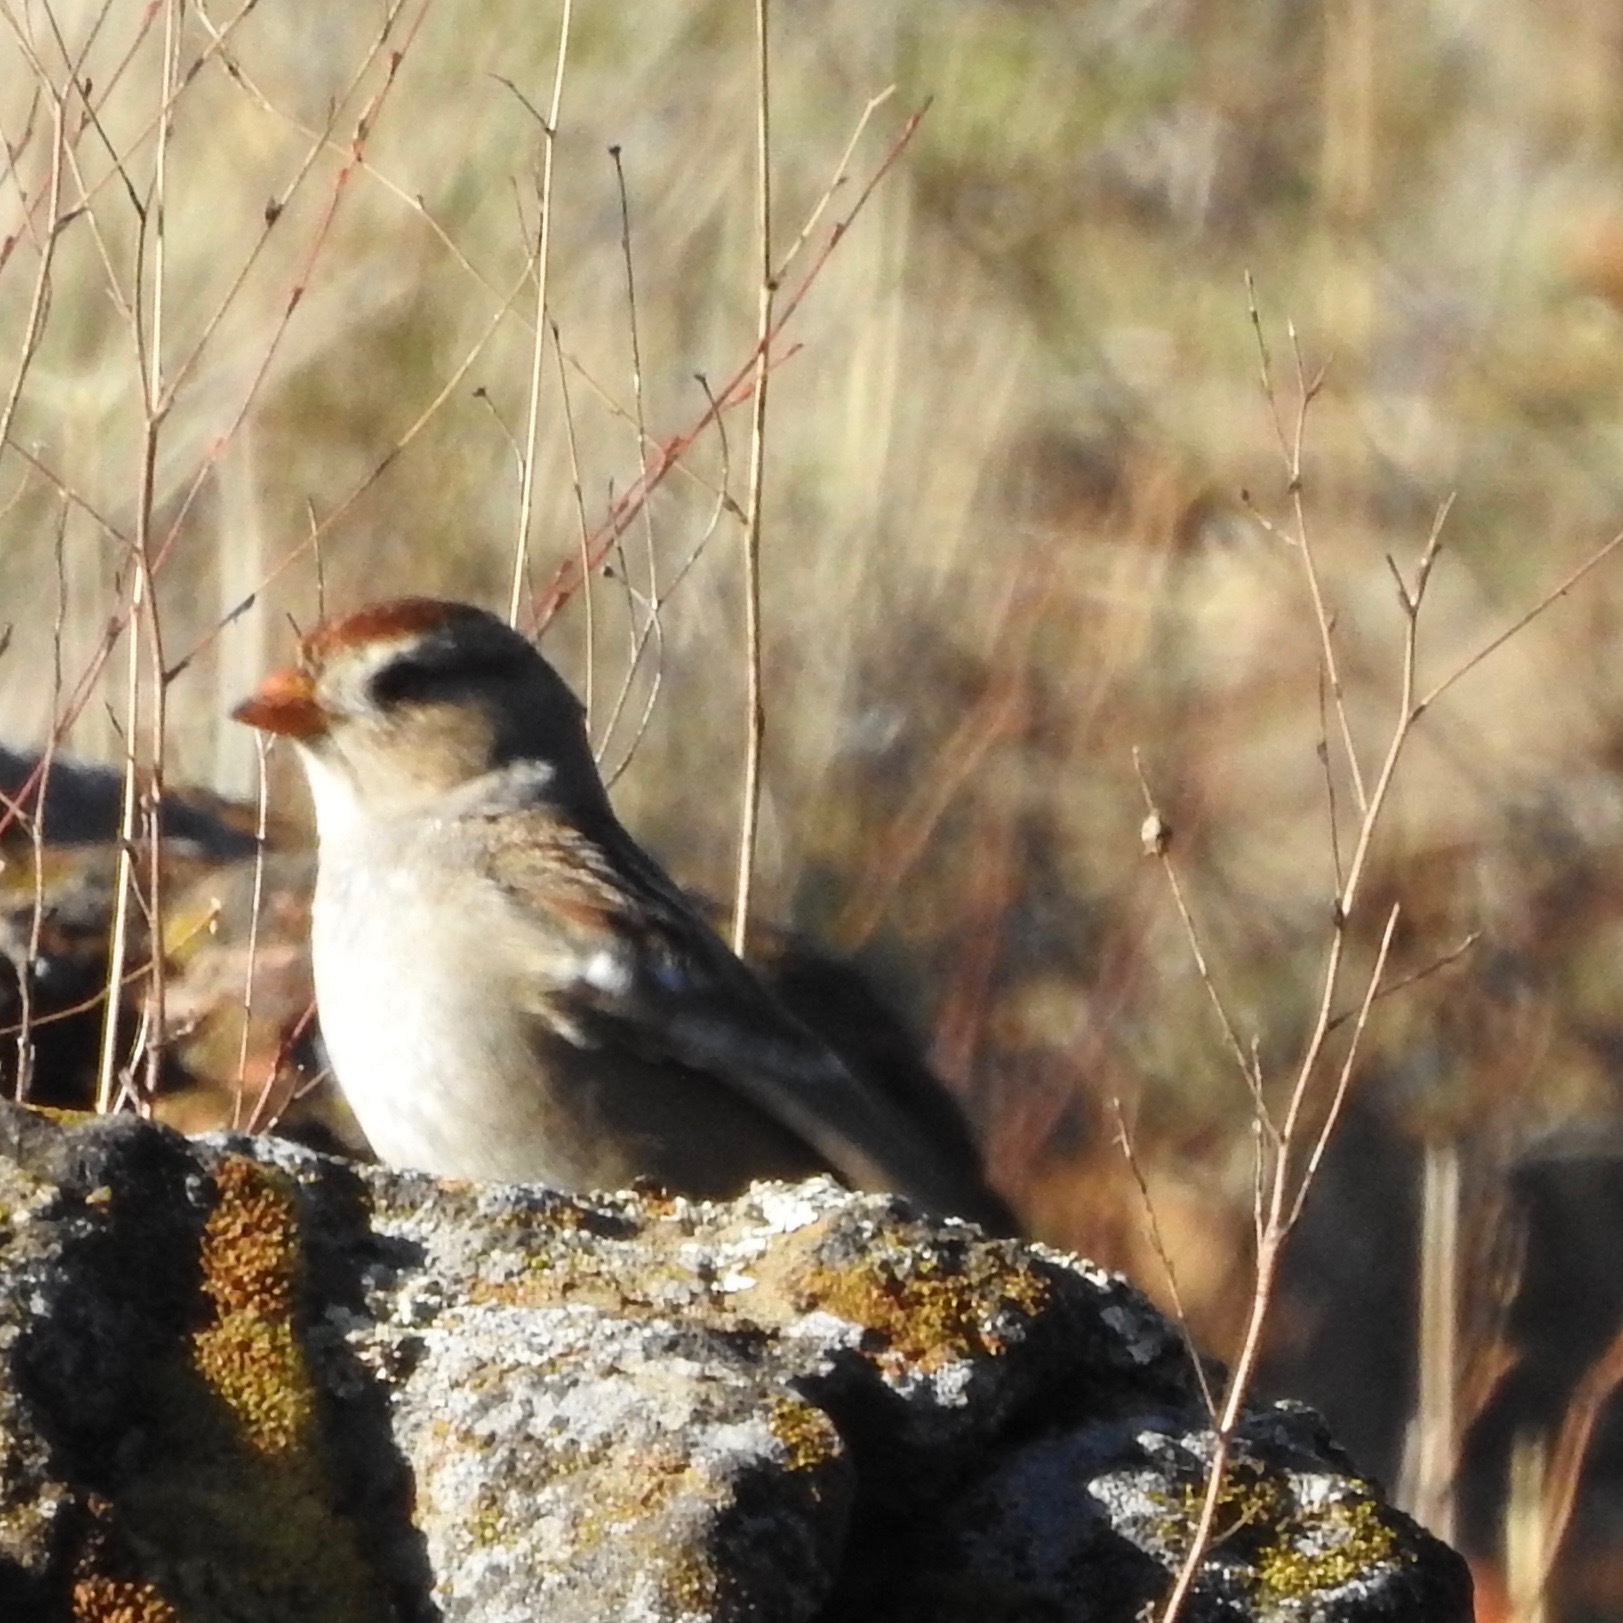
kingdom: Animalia
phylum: Chordata
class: Aves
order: Passeriformes
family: Passerellidae
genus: Zonotrichia
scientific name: Zonotrichia leucophrys
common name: White-crowned sparrow
